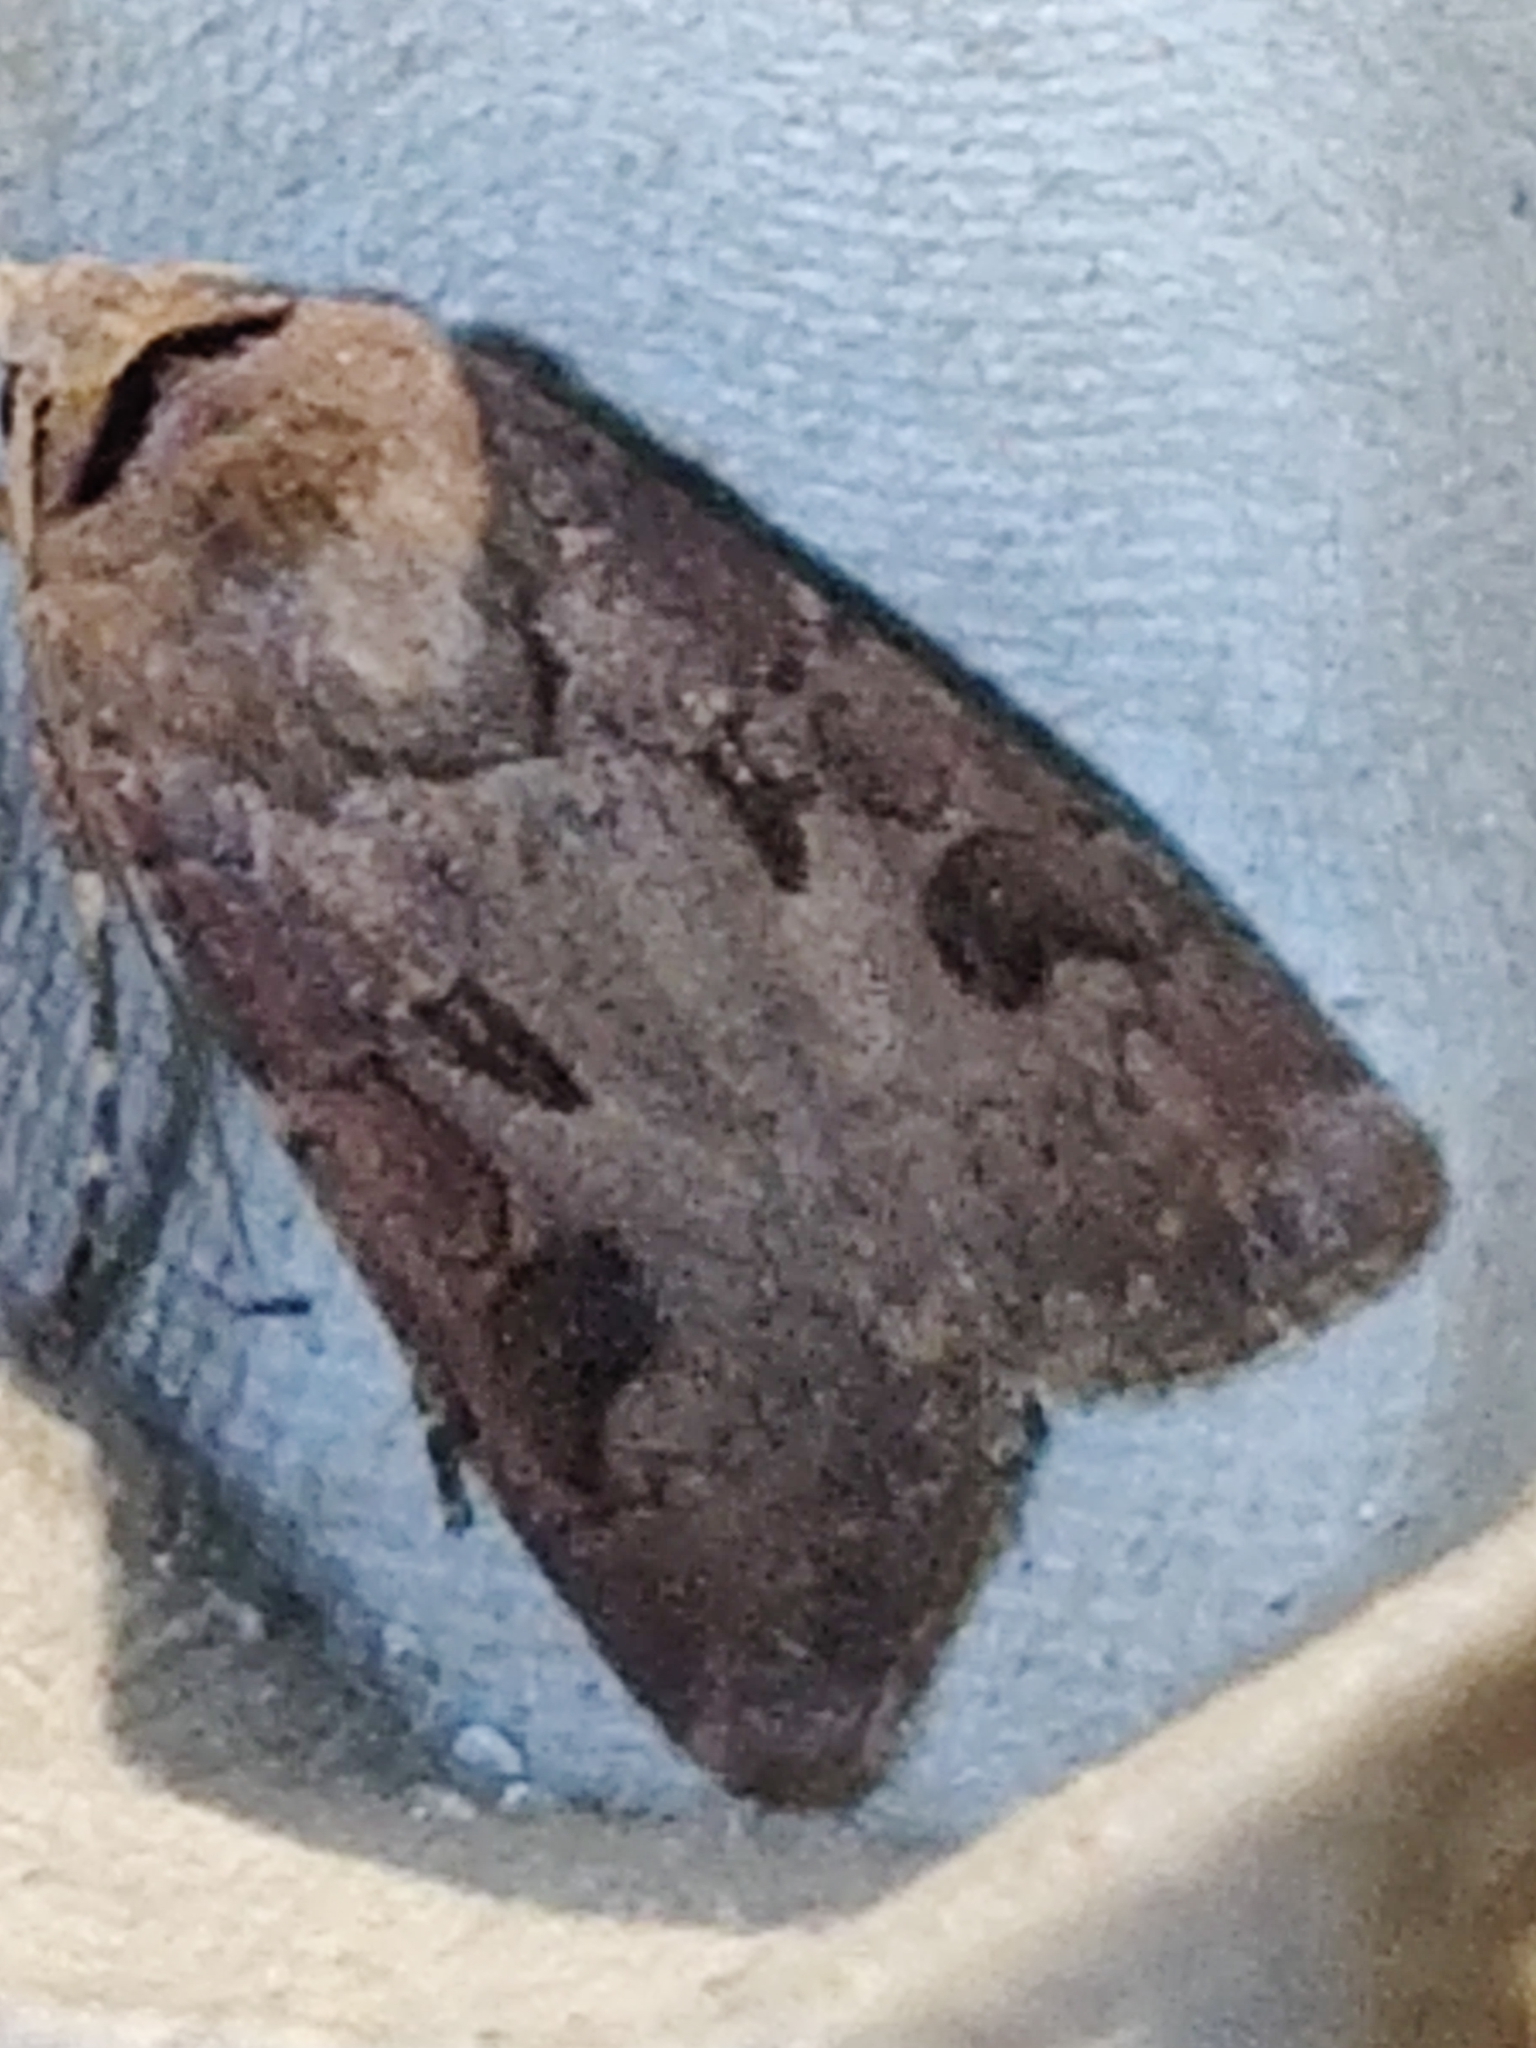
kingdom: Animalia
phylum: Arthropoda
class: Insecta
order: Lepidoptera
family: Noctuidae
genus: Agrotis
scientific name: Agrotis exclamationis
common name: Heart and dart
